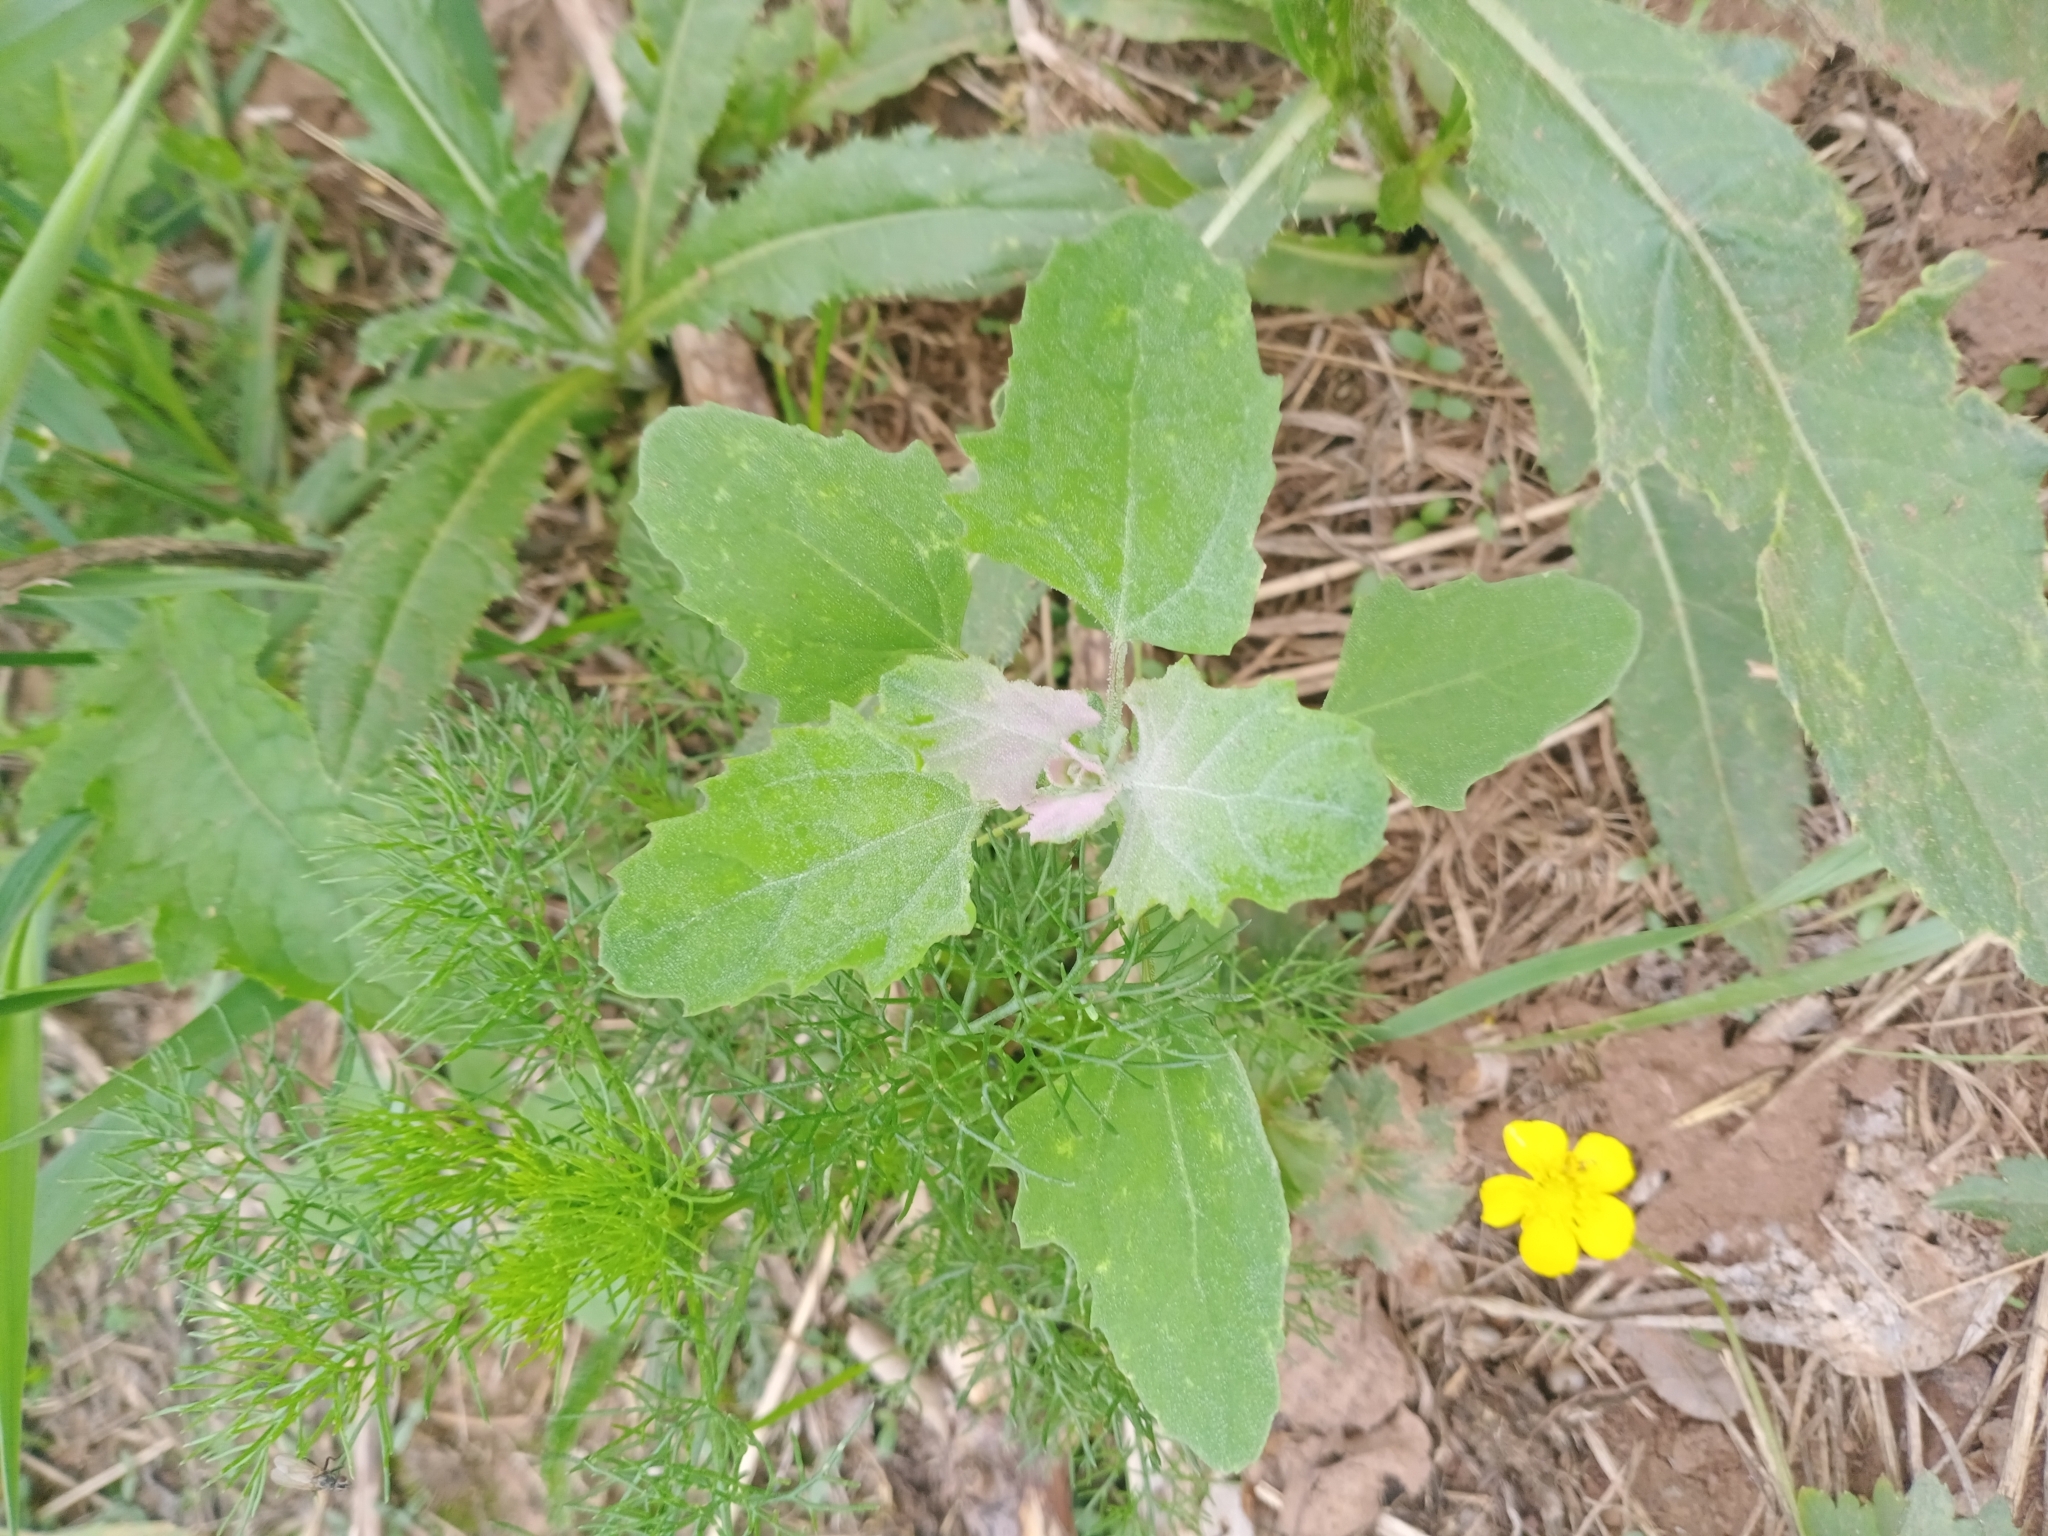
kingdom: Plantae
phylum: Tracheophyta
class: Magnoliopsida
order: Caryophyllales
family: Amaranthaceae
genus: Chenopodium
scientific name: Chenopodium album
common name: Fat-hen
